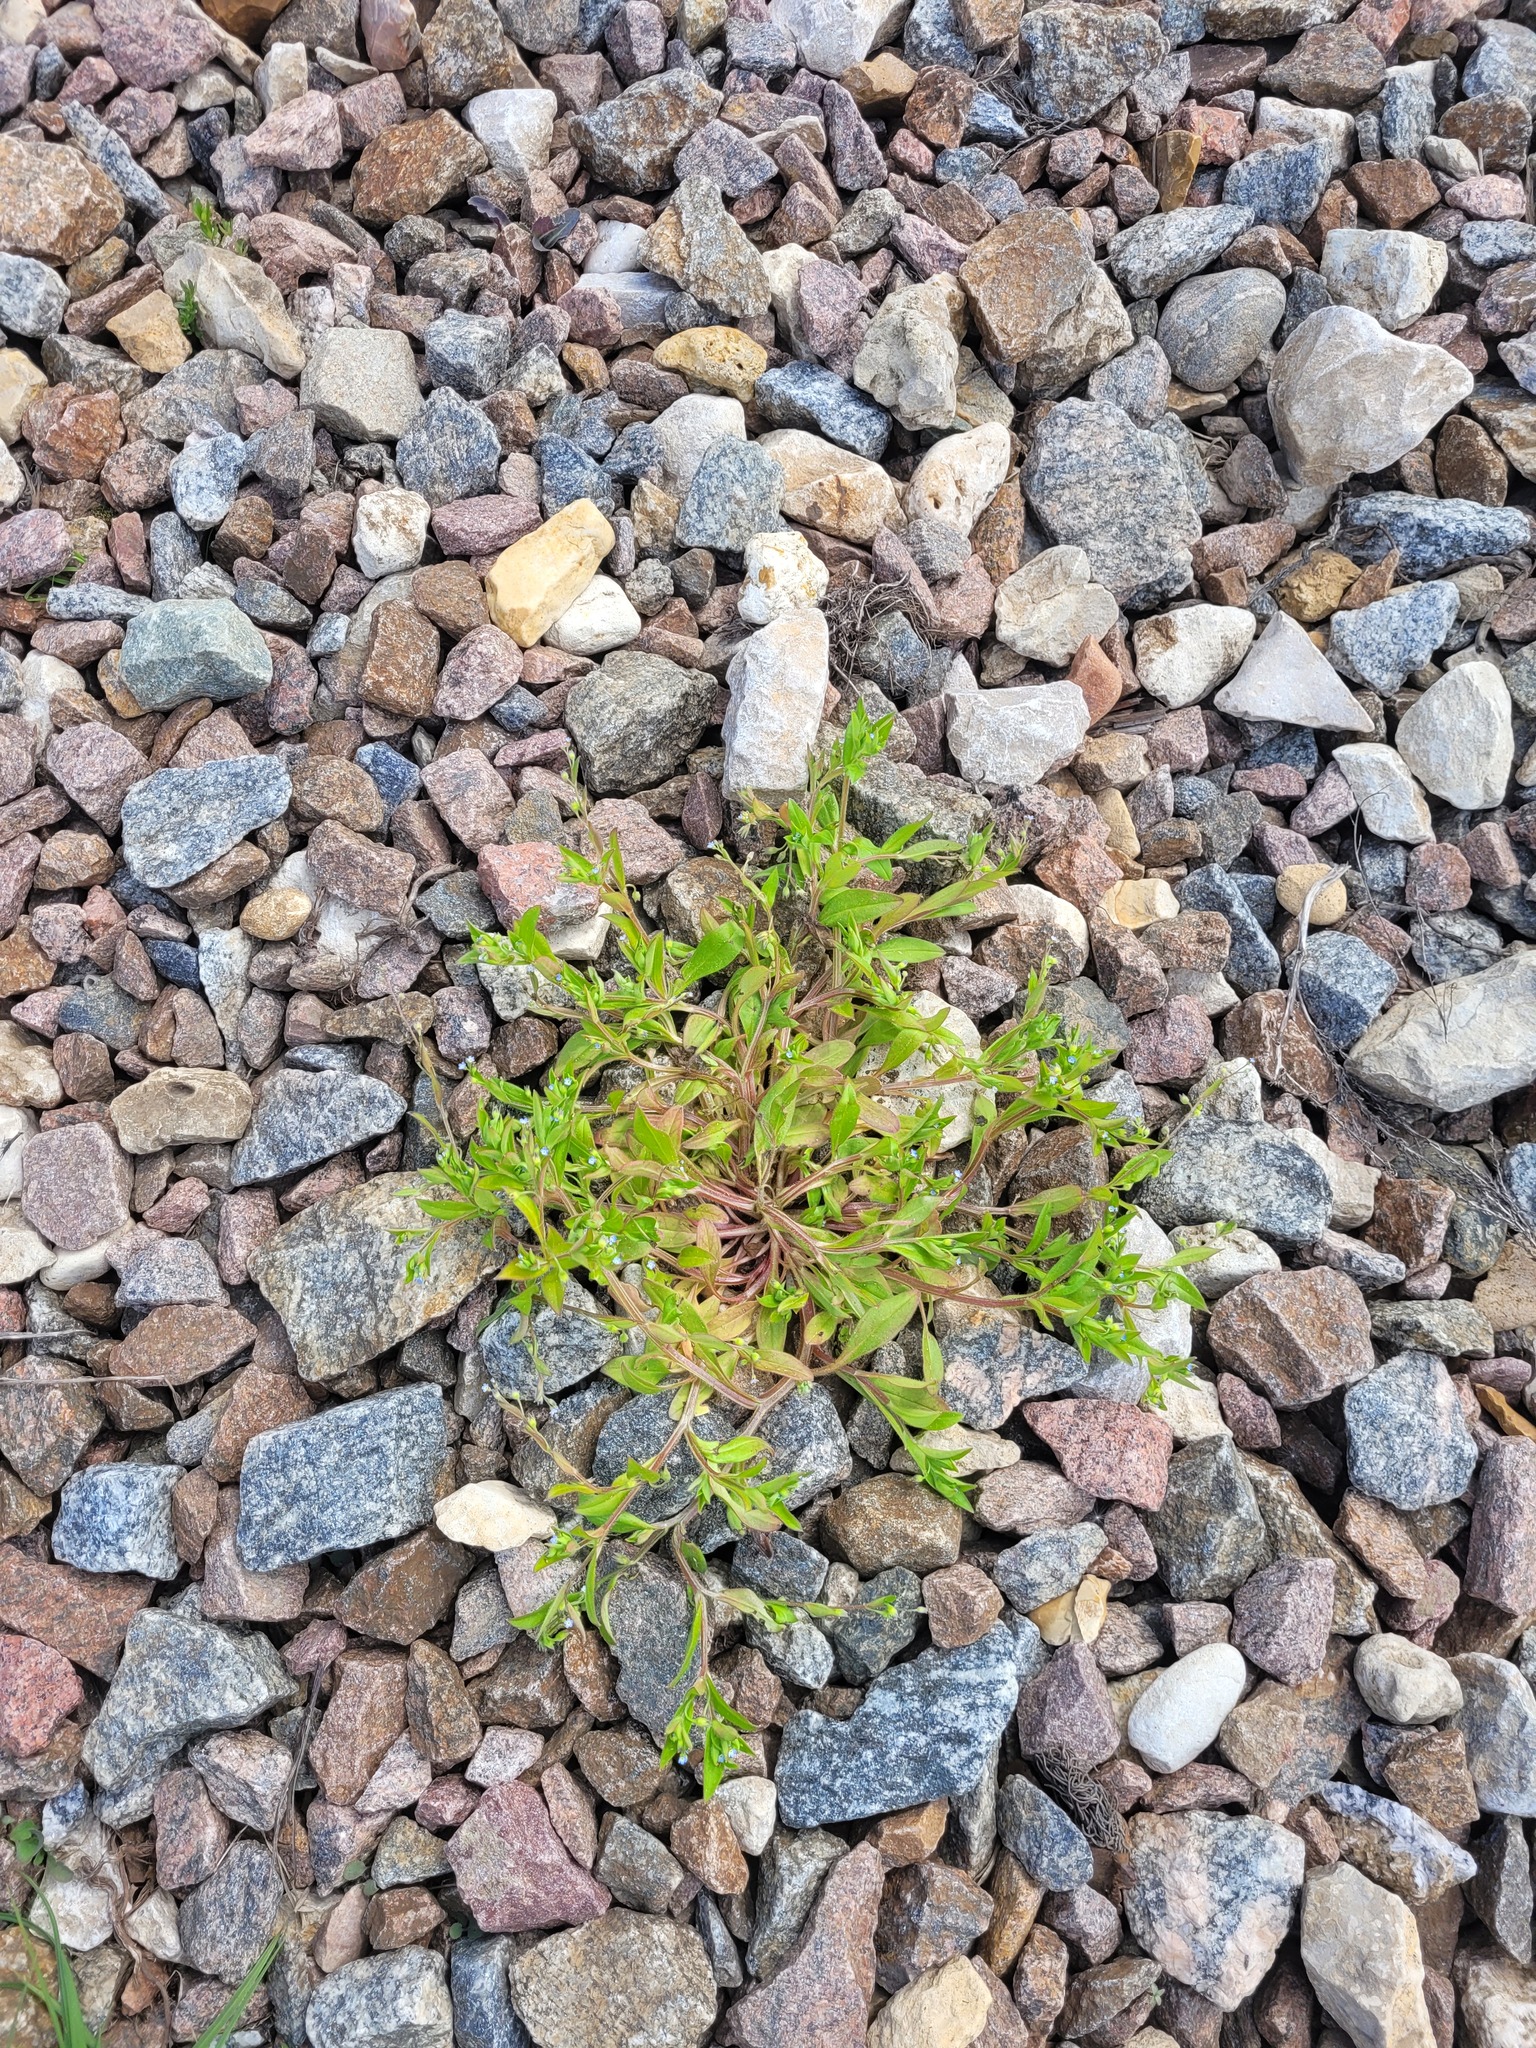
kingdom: Plantae
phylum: Tracheophyta
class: Magnoliopsida
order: Boraginales
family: Boraginaceae
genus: Myosotis
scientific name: Myosotis sparsiflora
